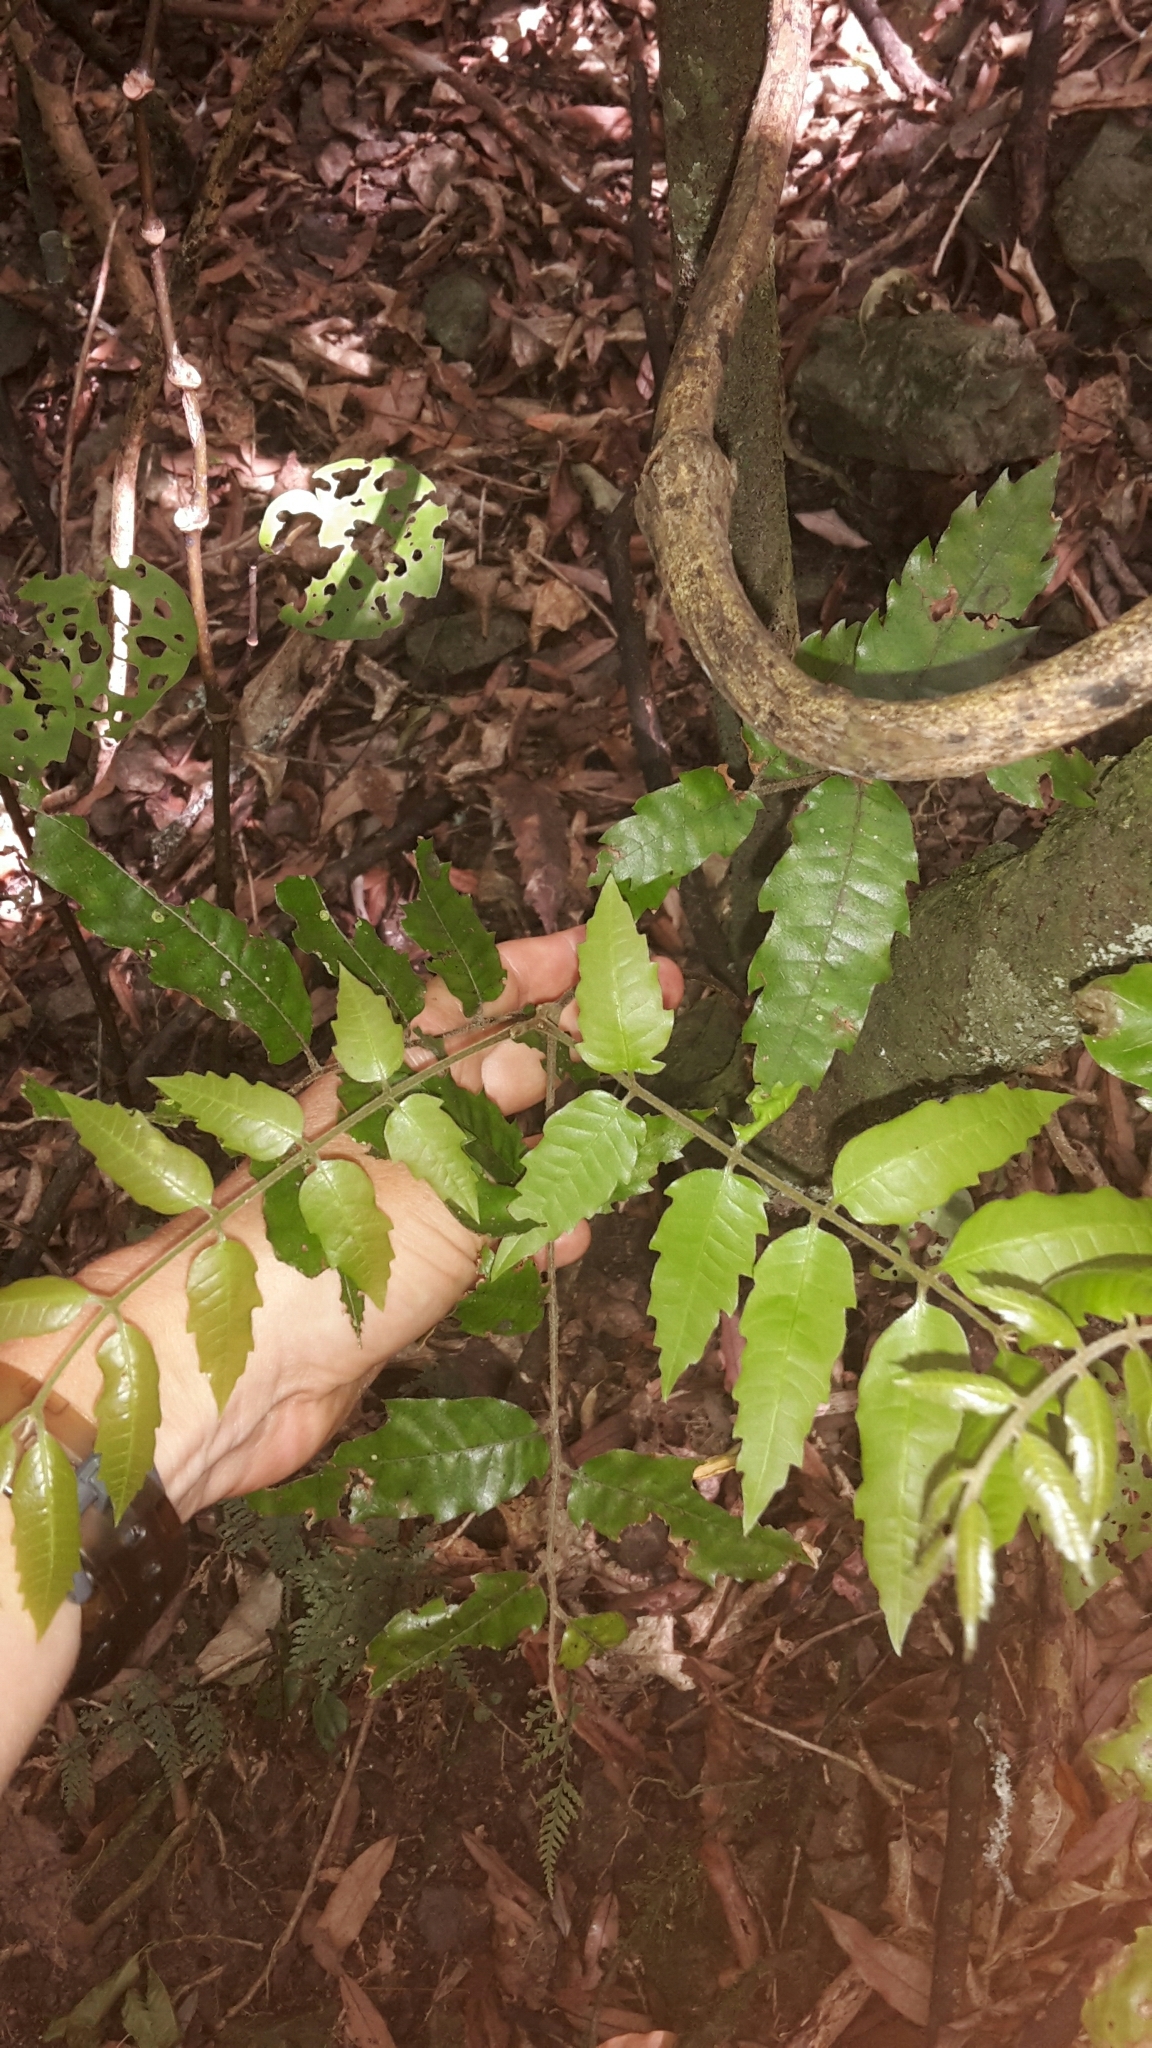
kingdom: Plantae
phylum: Tracheophyta
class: Magnoliopsida
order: Sapindales
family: Sapindaceae
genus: Alectryon
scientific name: Alectryon excelsus
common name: Three kings titoki
